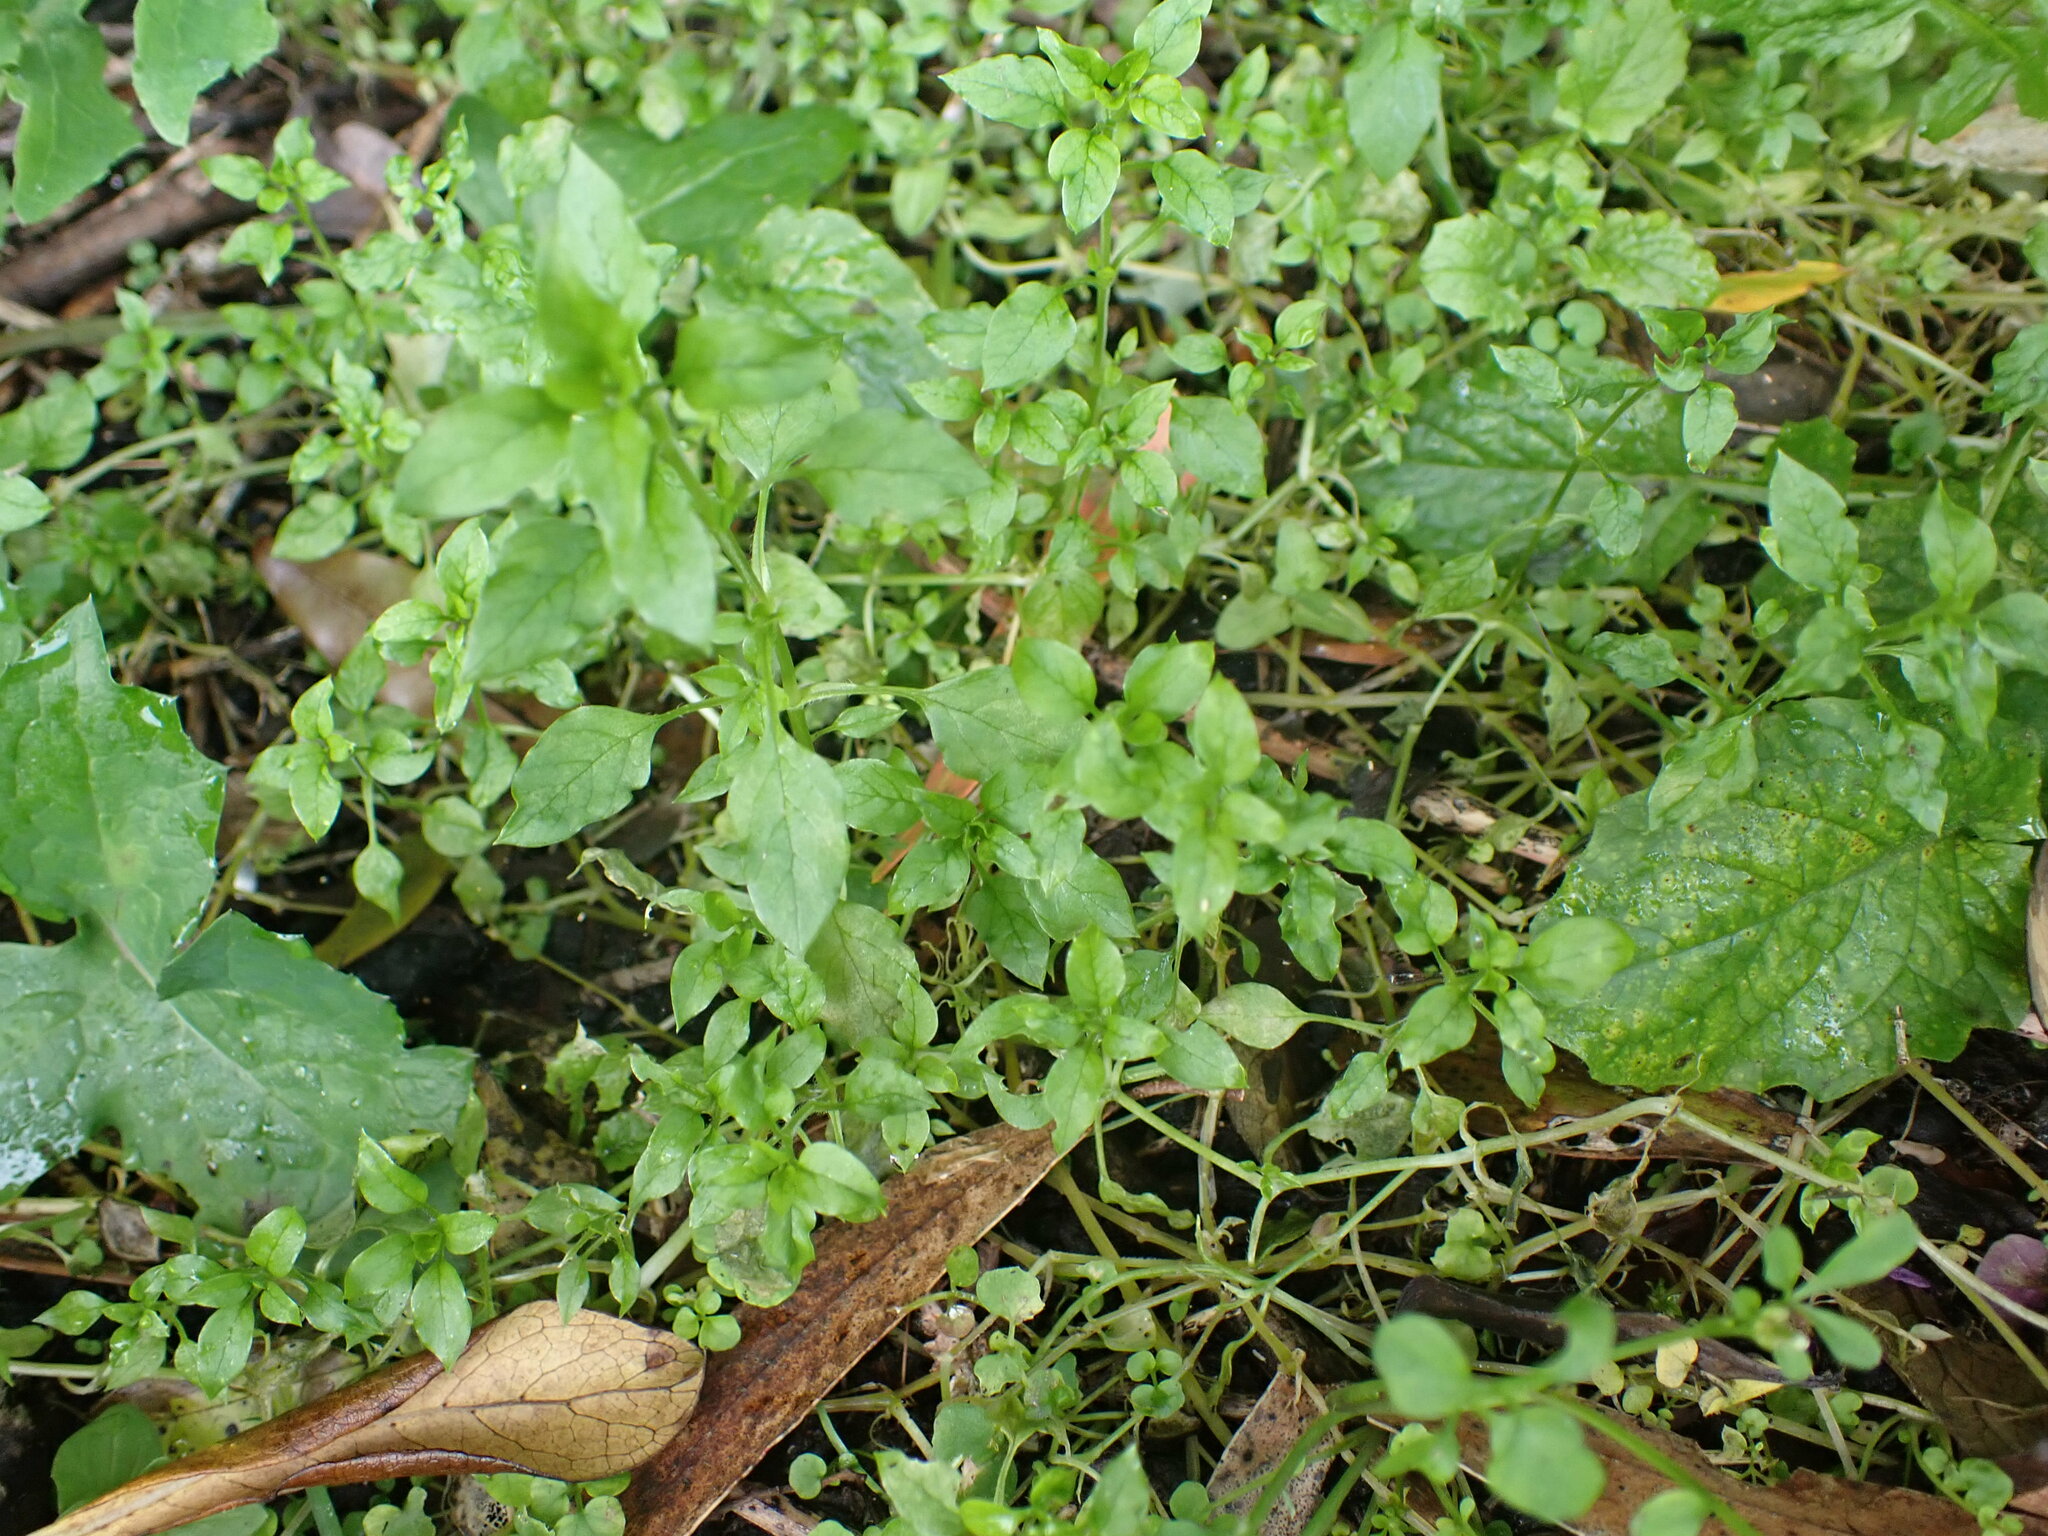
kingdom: Plantae
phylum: Tracheophyta
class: Magnoliopsida
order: Caryophyllales
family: Caryophyllaceae
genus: Stellaria
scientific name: Stellaria media
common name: Common chickweed
